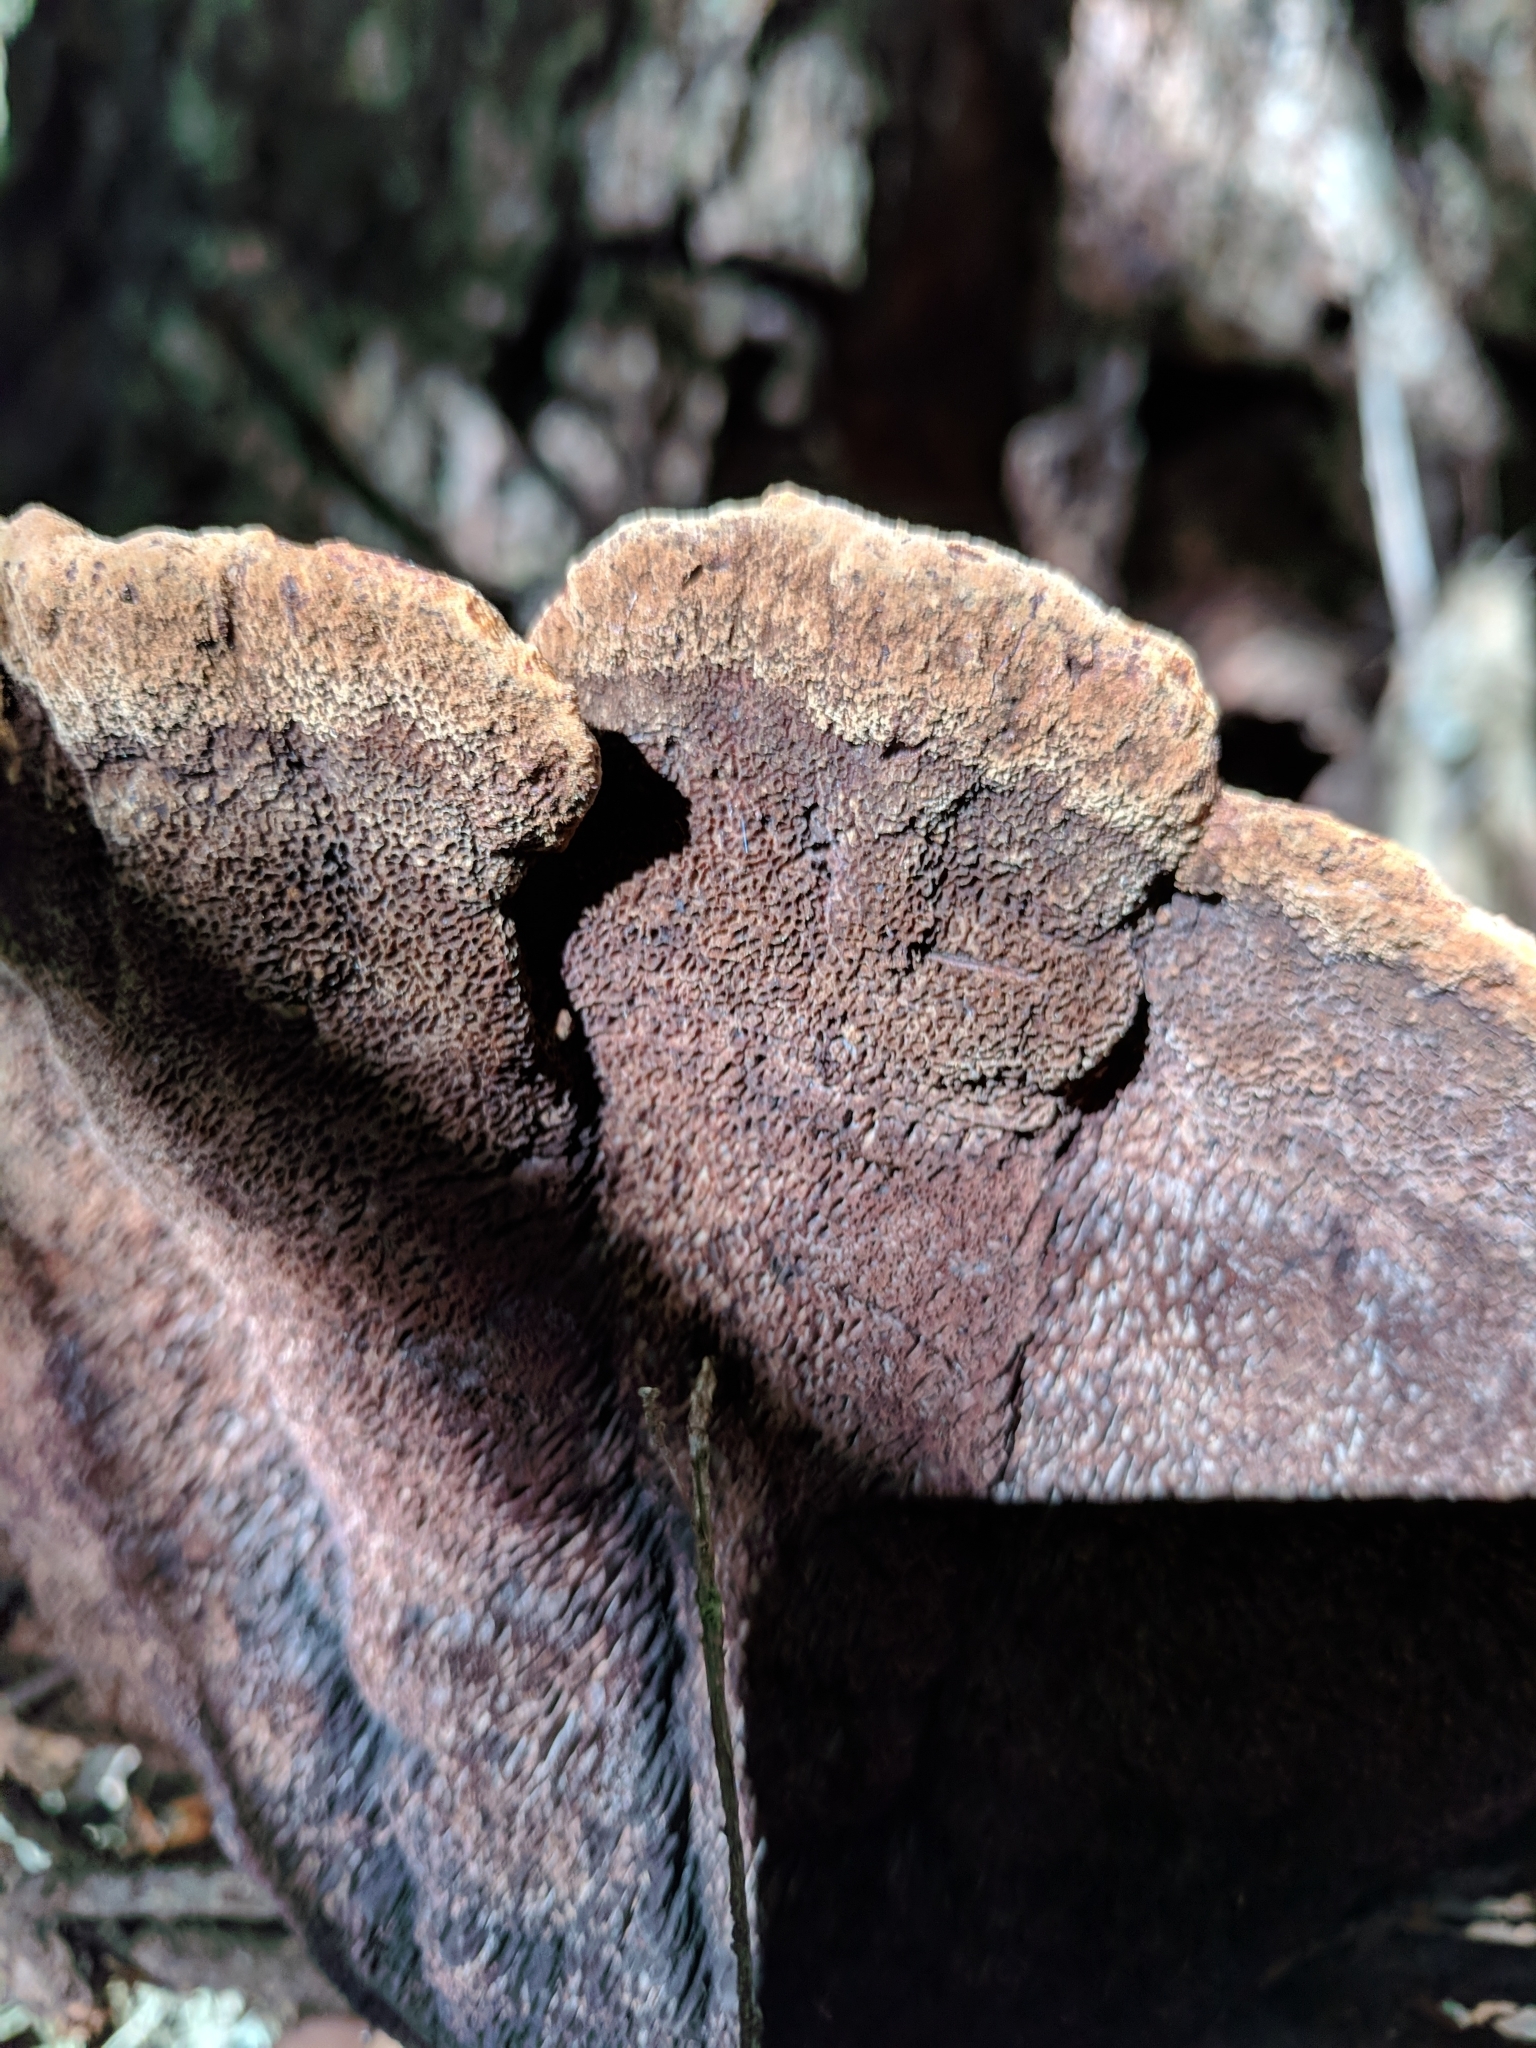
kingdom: Fungi
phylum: Basidiomycota
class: Agaricomycetes
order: Polyporales
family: Laetiporaceae
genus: Phaeolus
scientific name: Phaeolus schweinitzii
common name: Dyer's mazegill
